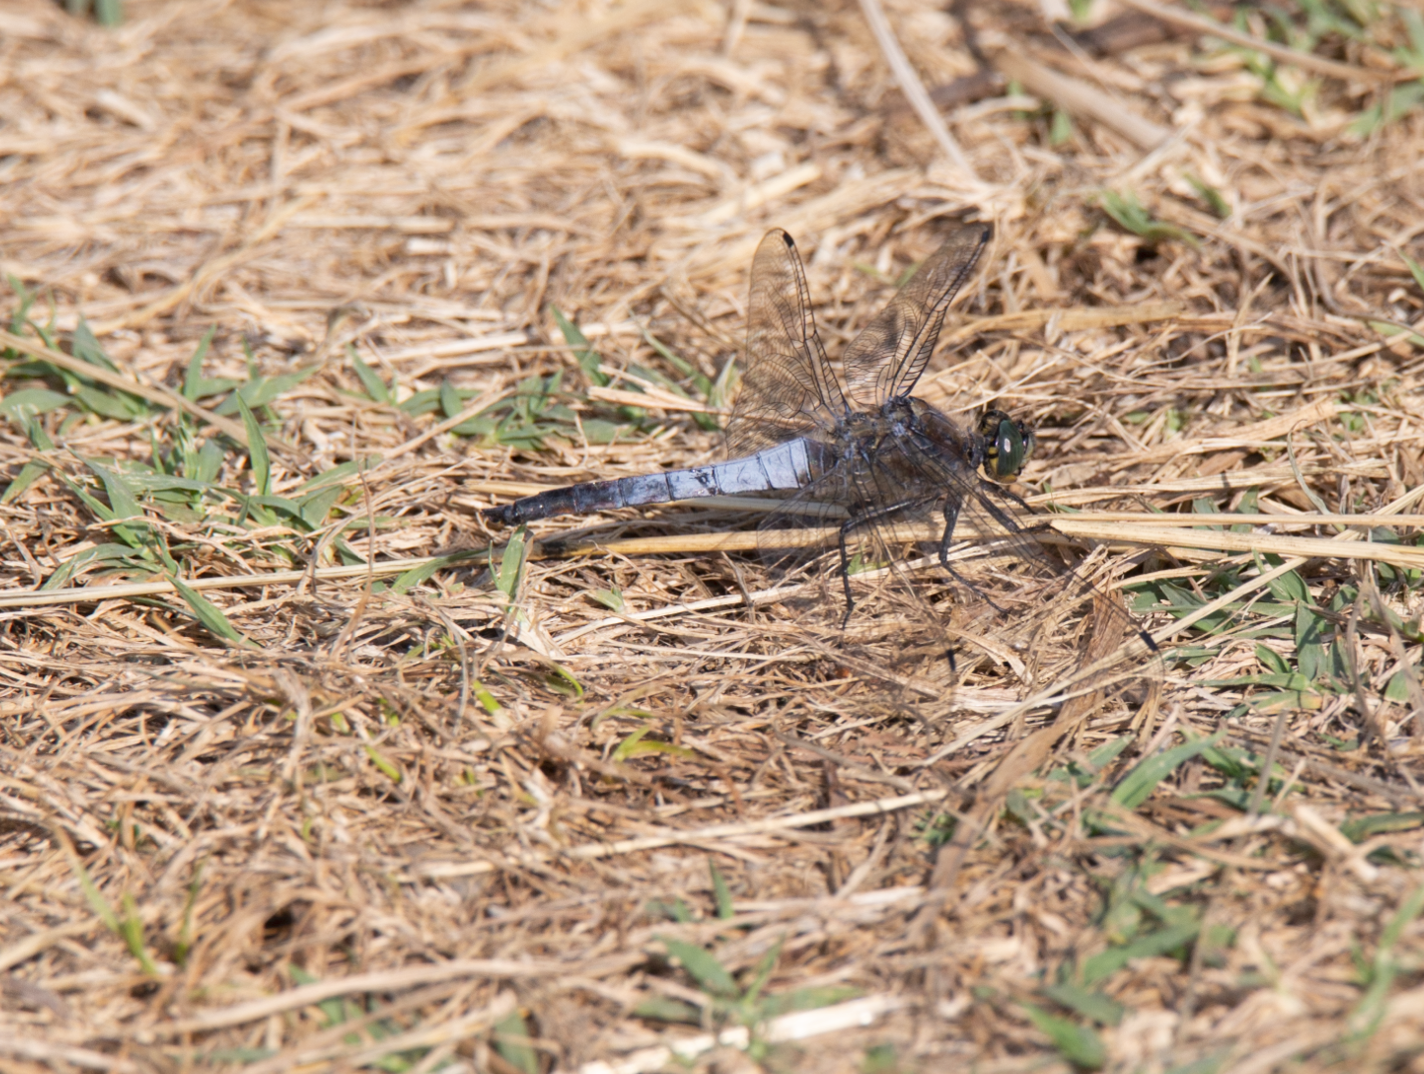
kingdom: Animalia
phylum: Arthropoda
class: Insecta
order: Odonata
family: Libellulidae
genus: Orthetrum
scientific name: Orthetrum cancellatum
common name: Black-tailed skimmer
